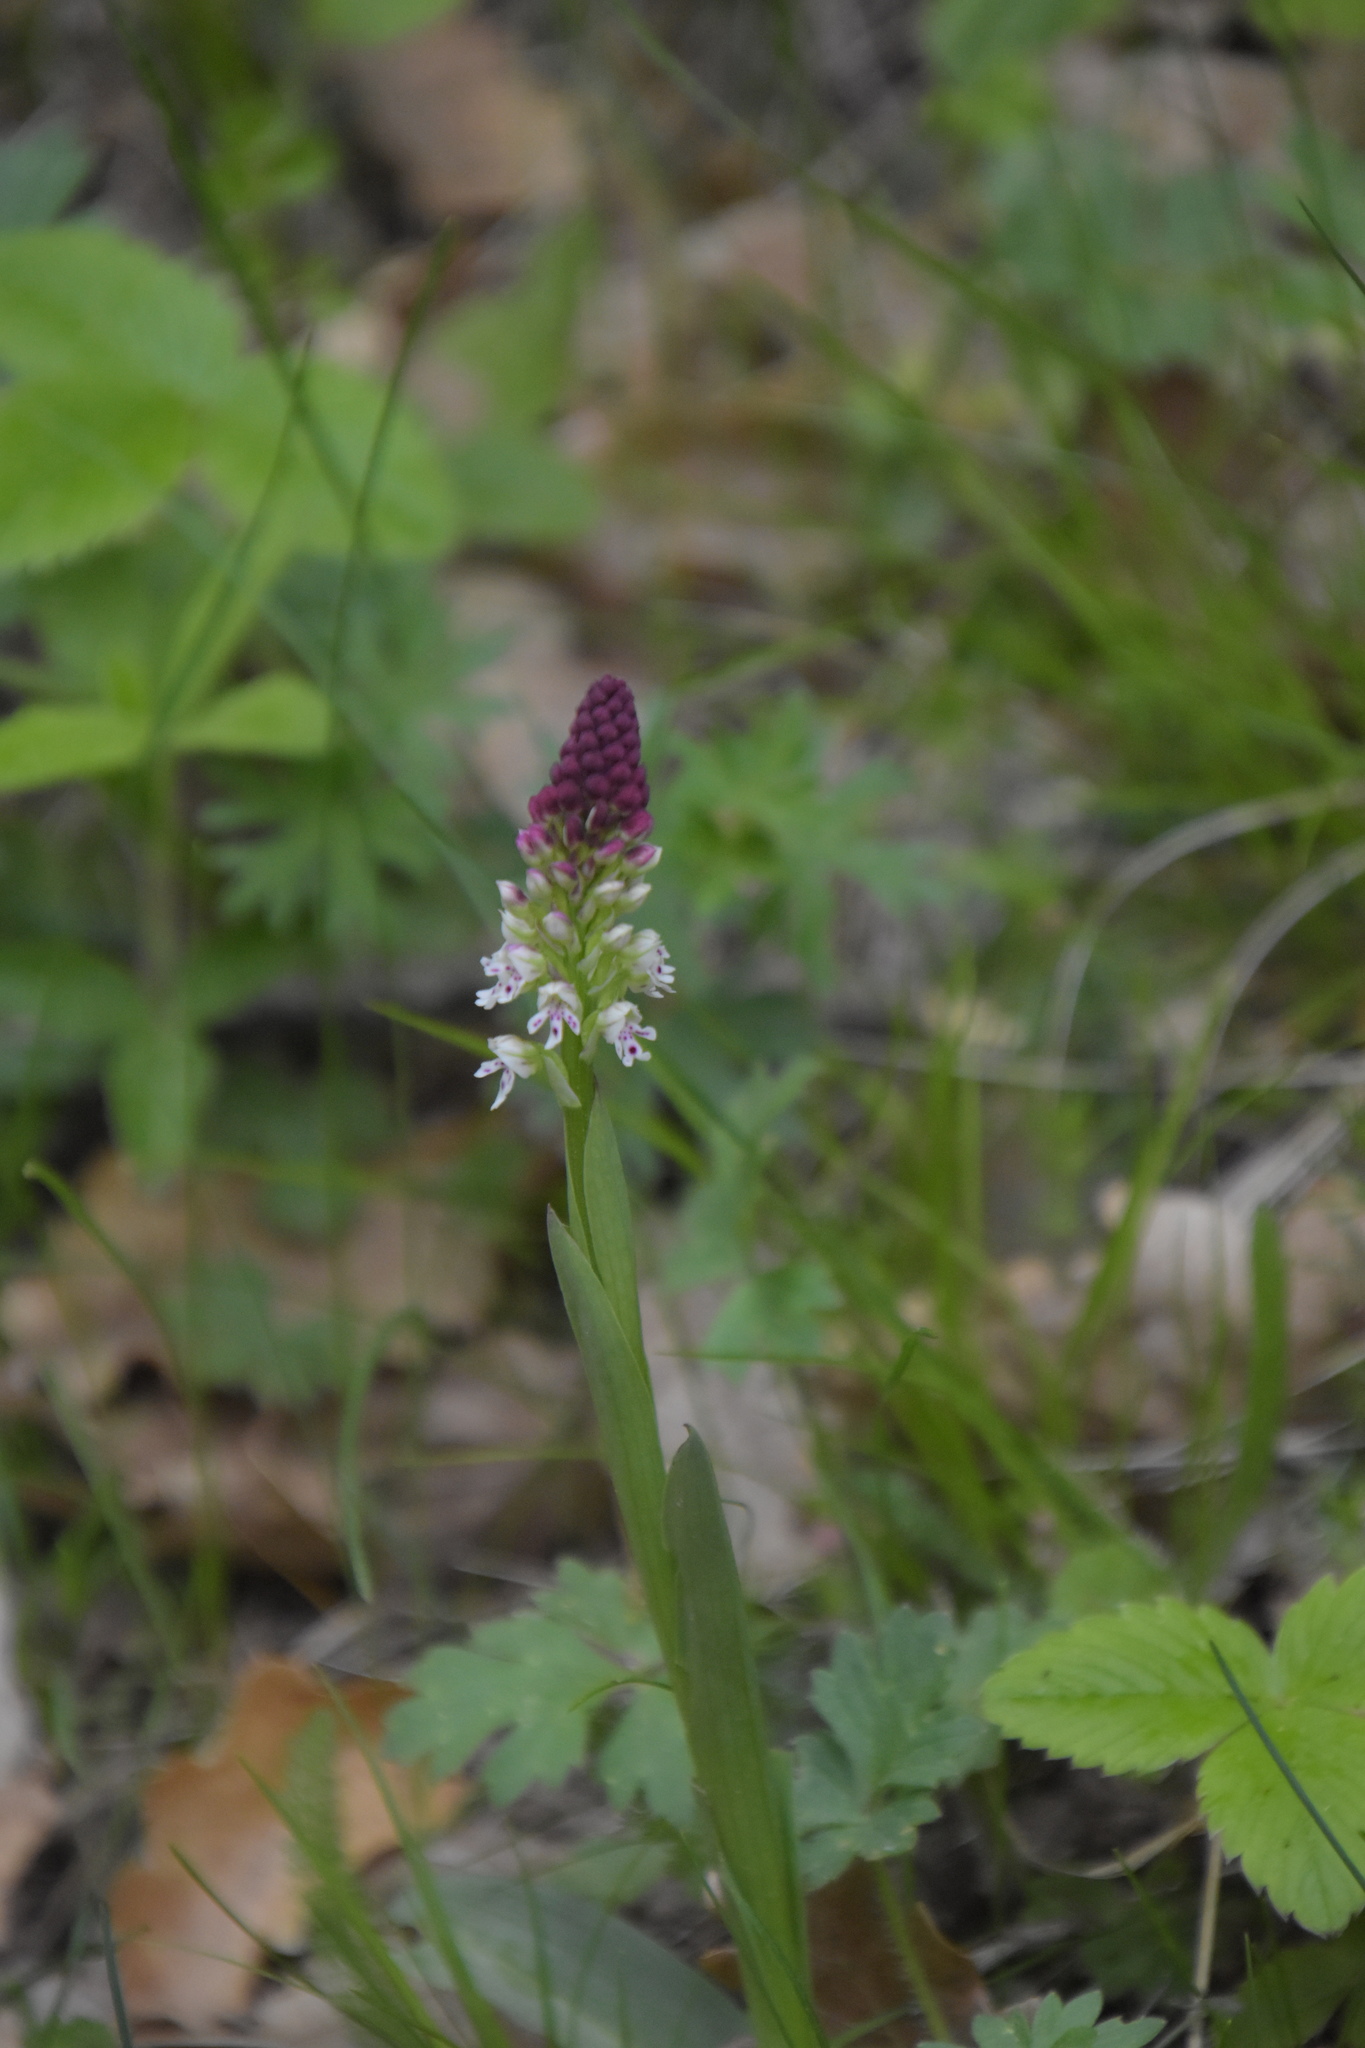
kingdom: Plantae
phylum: Tracheophyta
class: Liliopsida
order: Asparagales
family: Orchidaceae
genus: Neotinea
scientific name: Neotinea ustulata
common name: Burnt orchid
